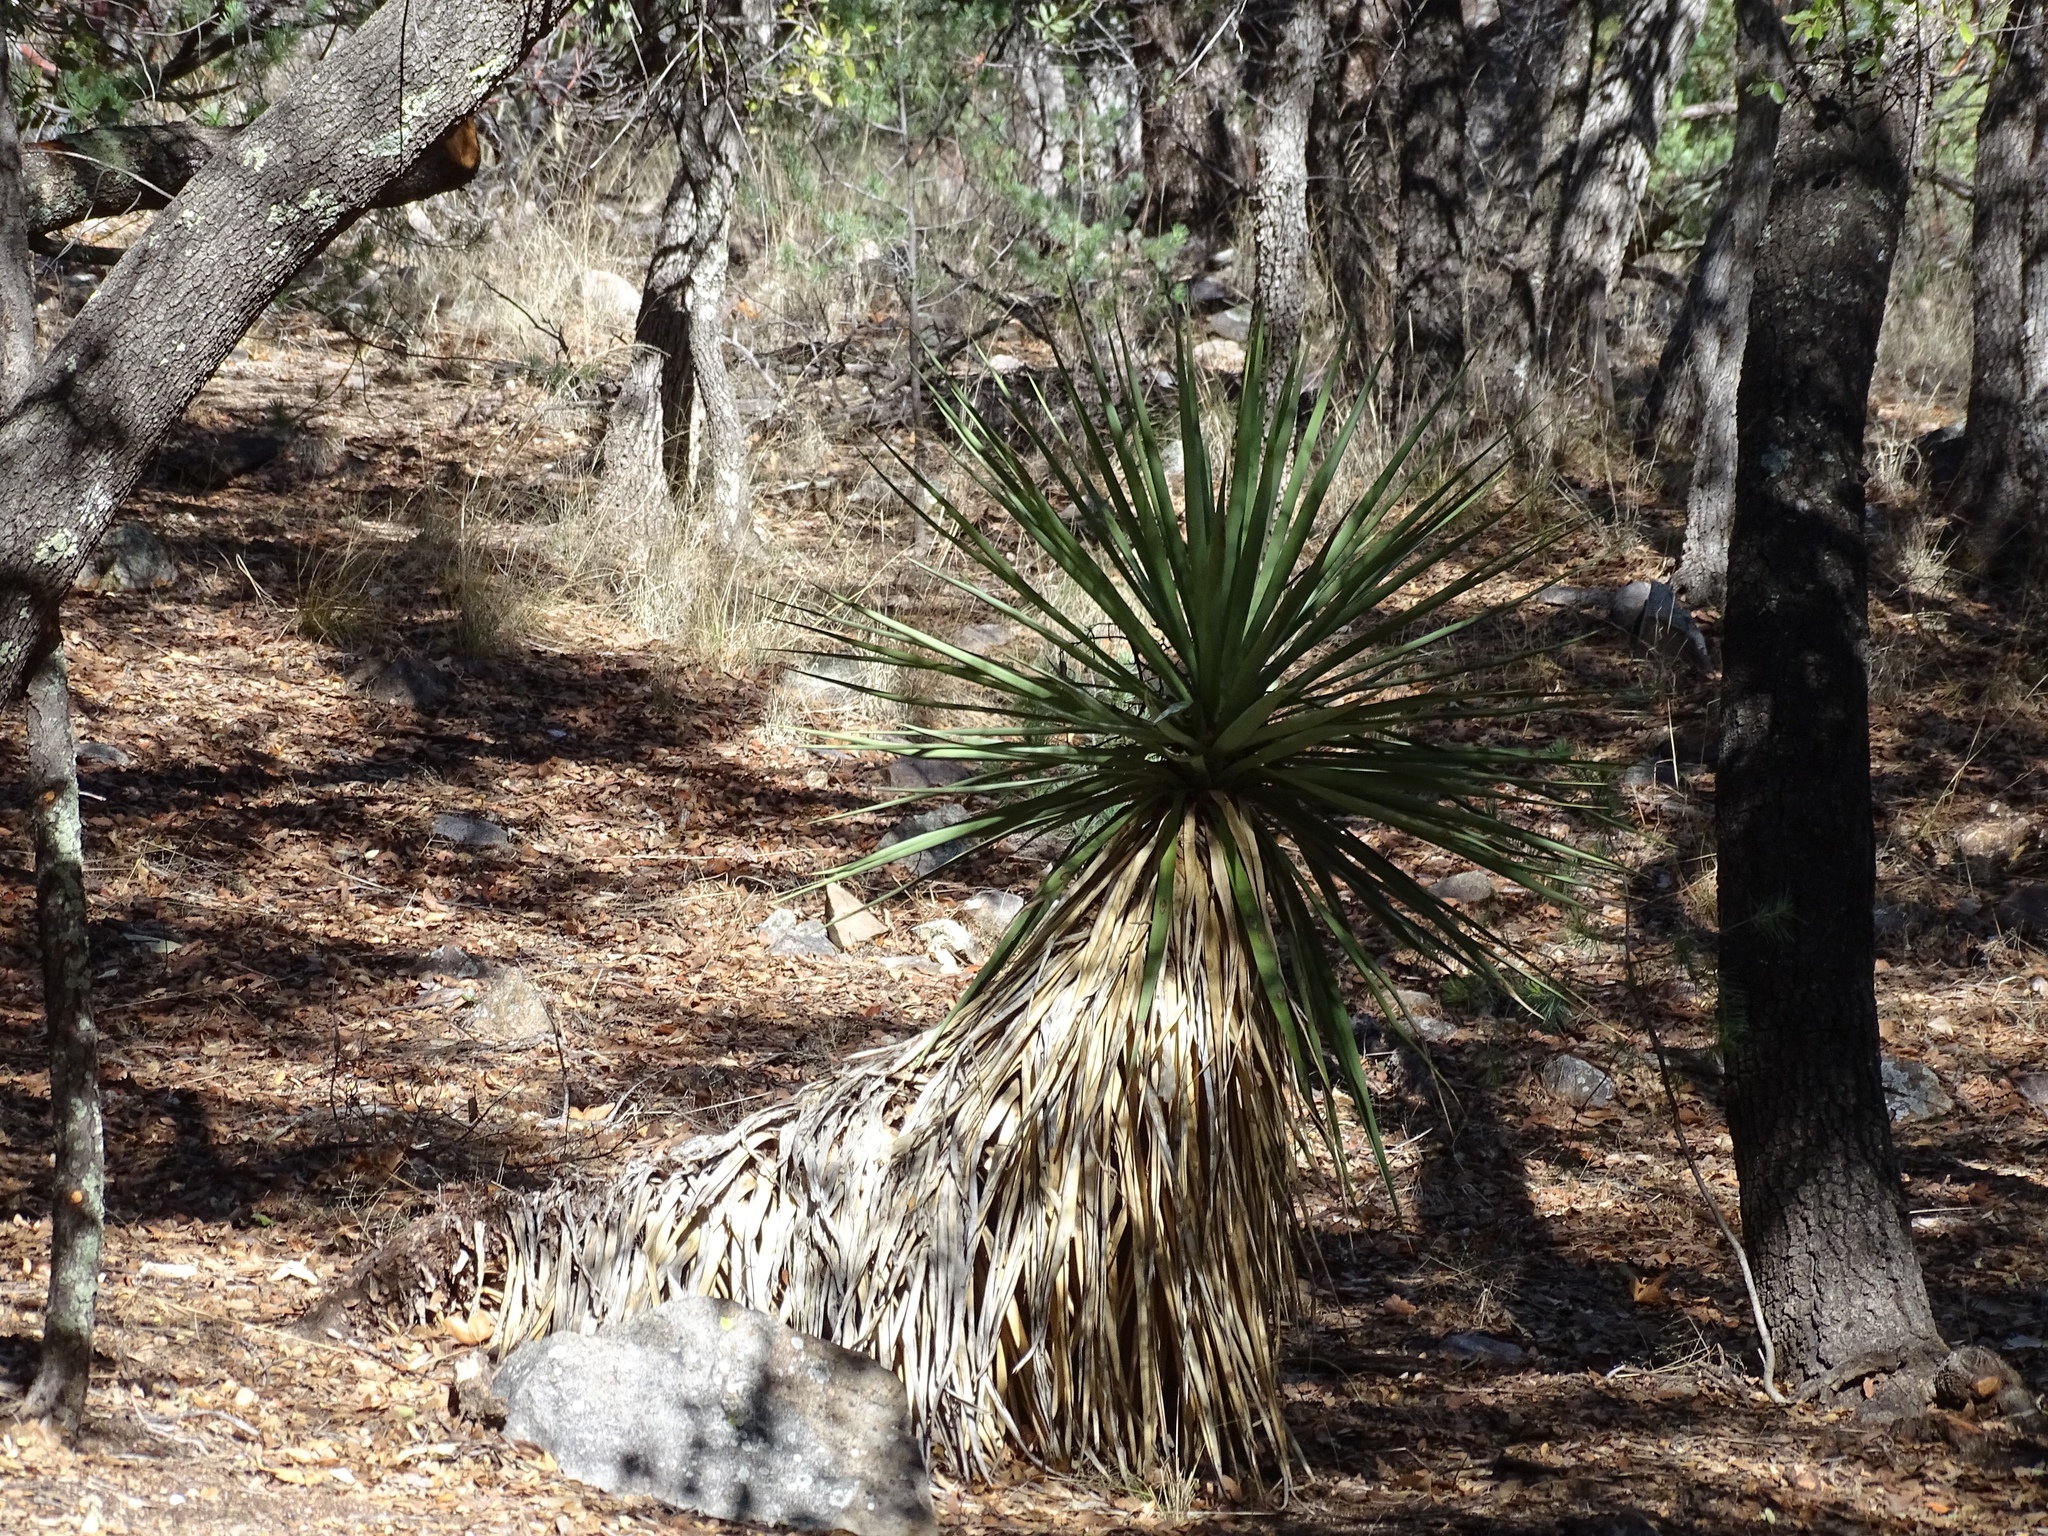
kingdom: Plantae
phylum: Tracheophyta
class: Liliopsida
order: Asparagales
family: Asparagaceae
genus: Yucca
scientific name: Yucca madrensis
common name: Hoary yucca
